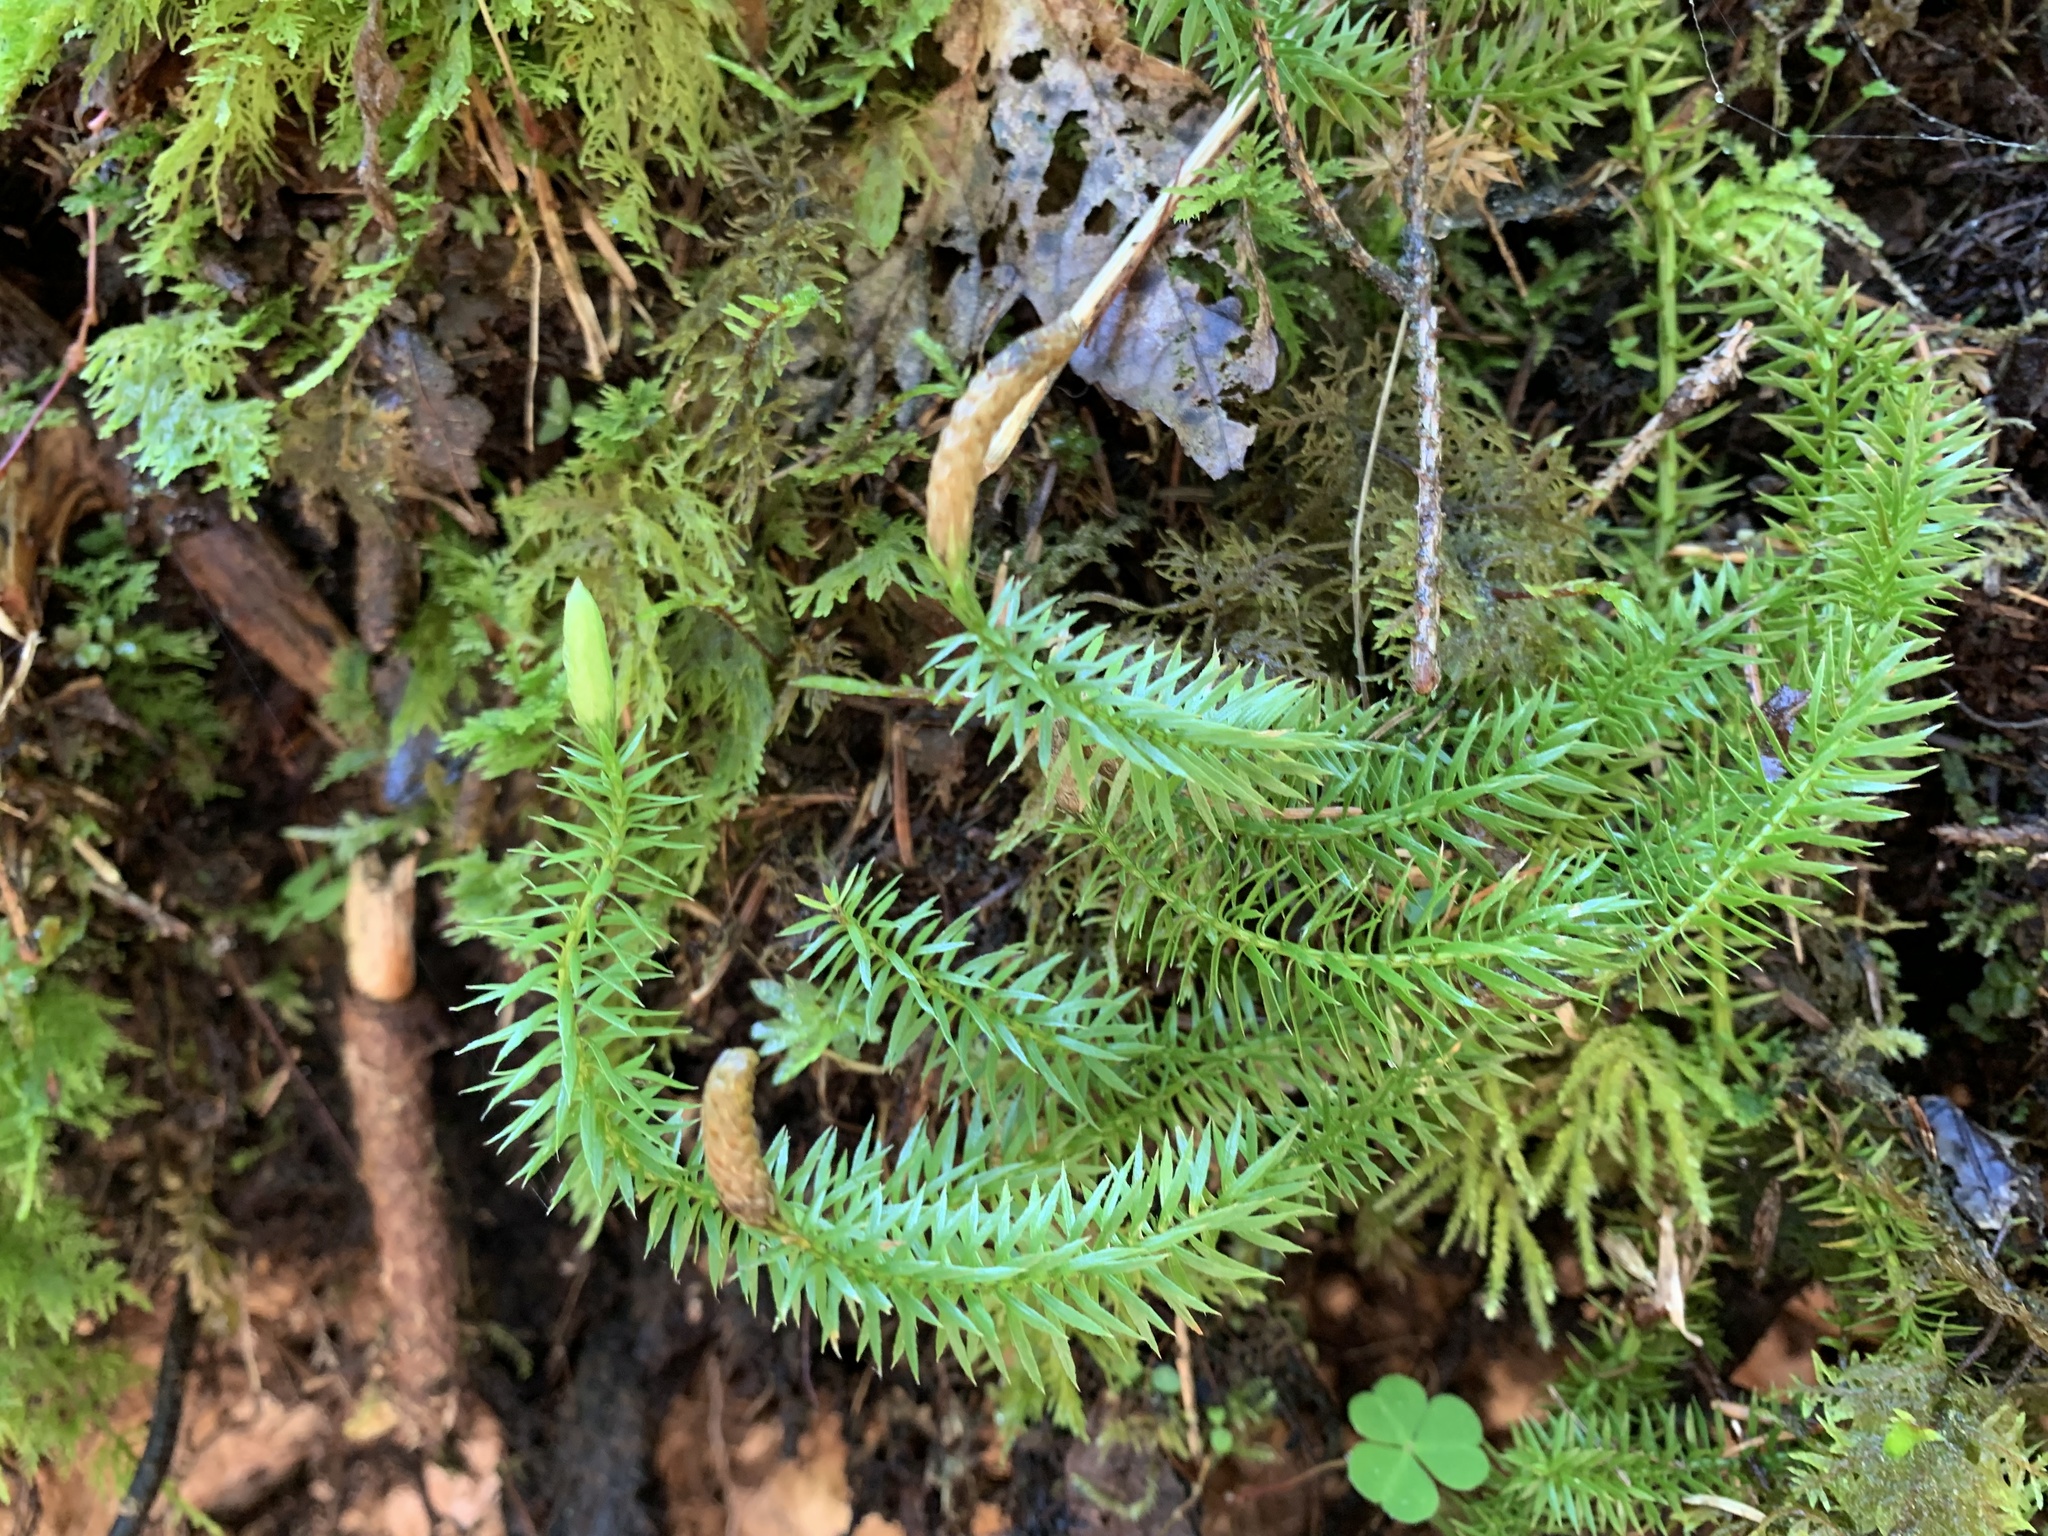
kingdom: Plantae
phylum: Tracheophyta
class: Lycopodiopsida
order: Lycopodiales
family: Lycopodiaceae
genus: Spinulum
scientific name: Spinulum annotinum
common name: Interrupted club-moss
